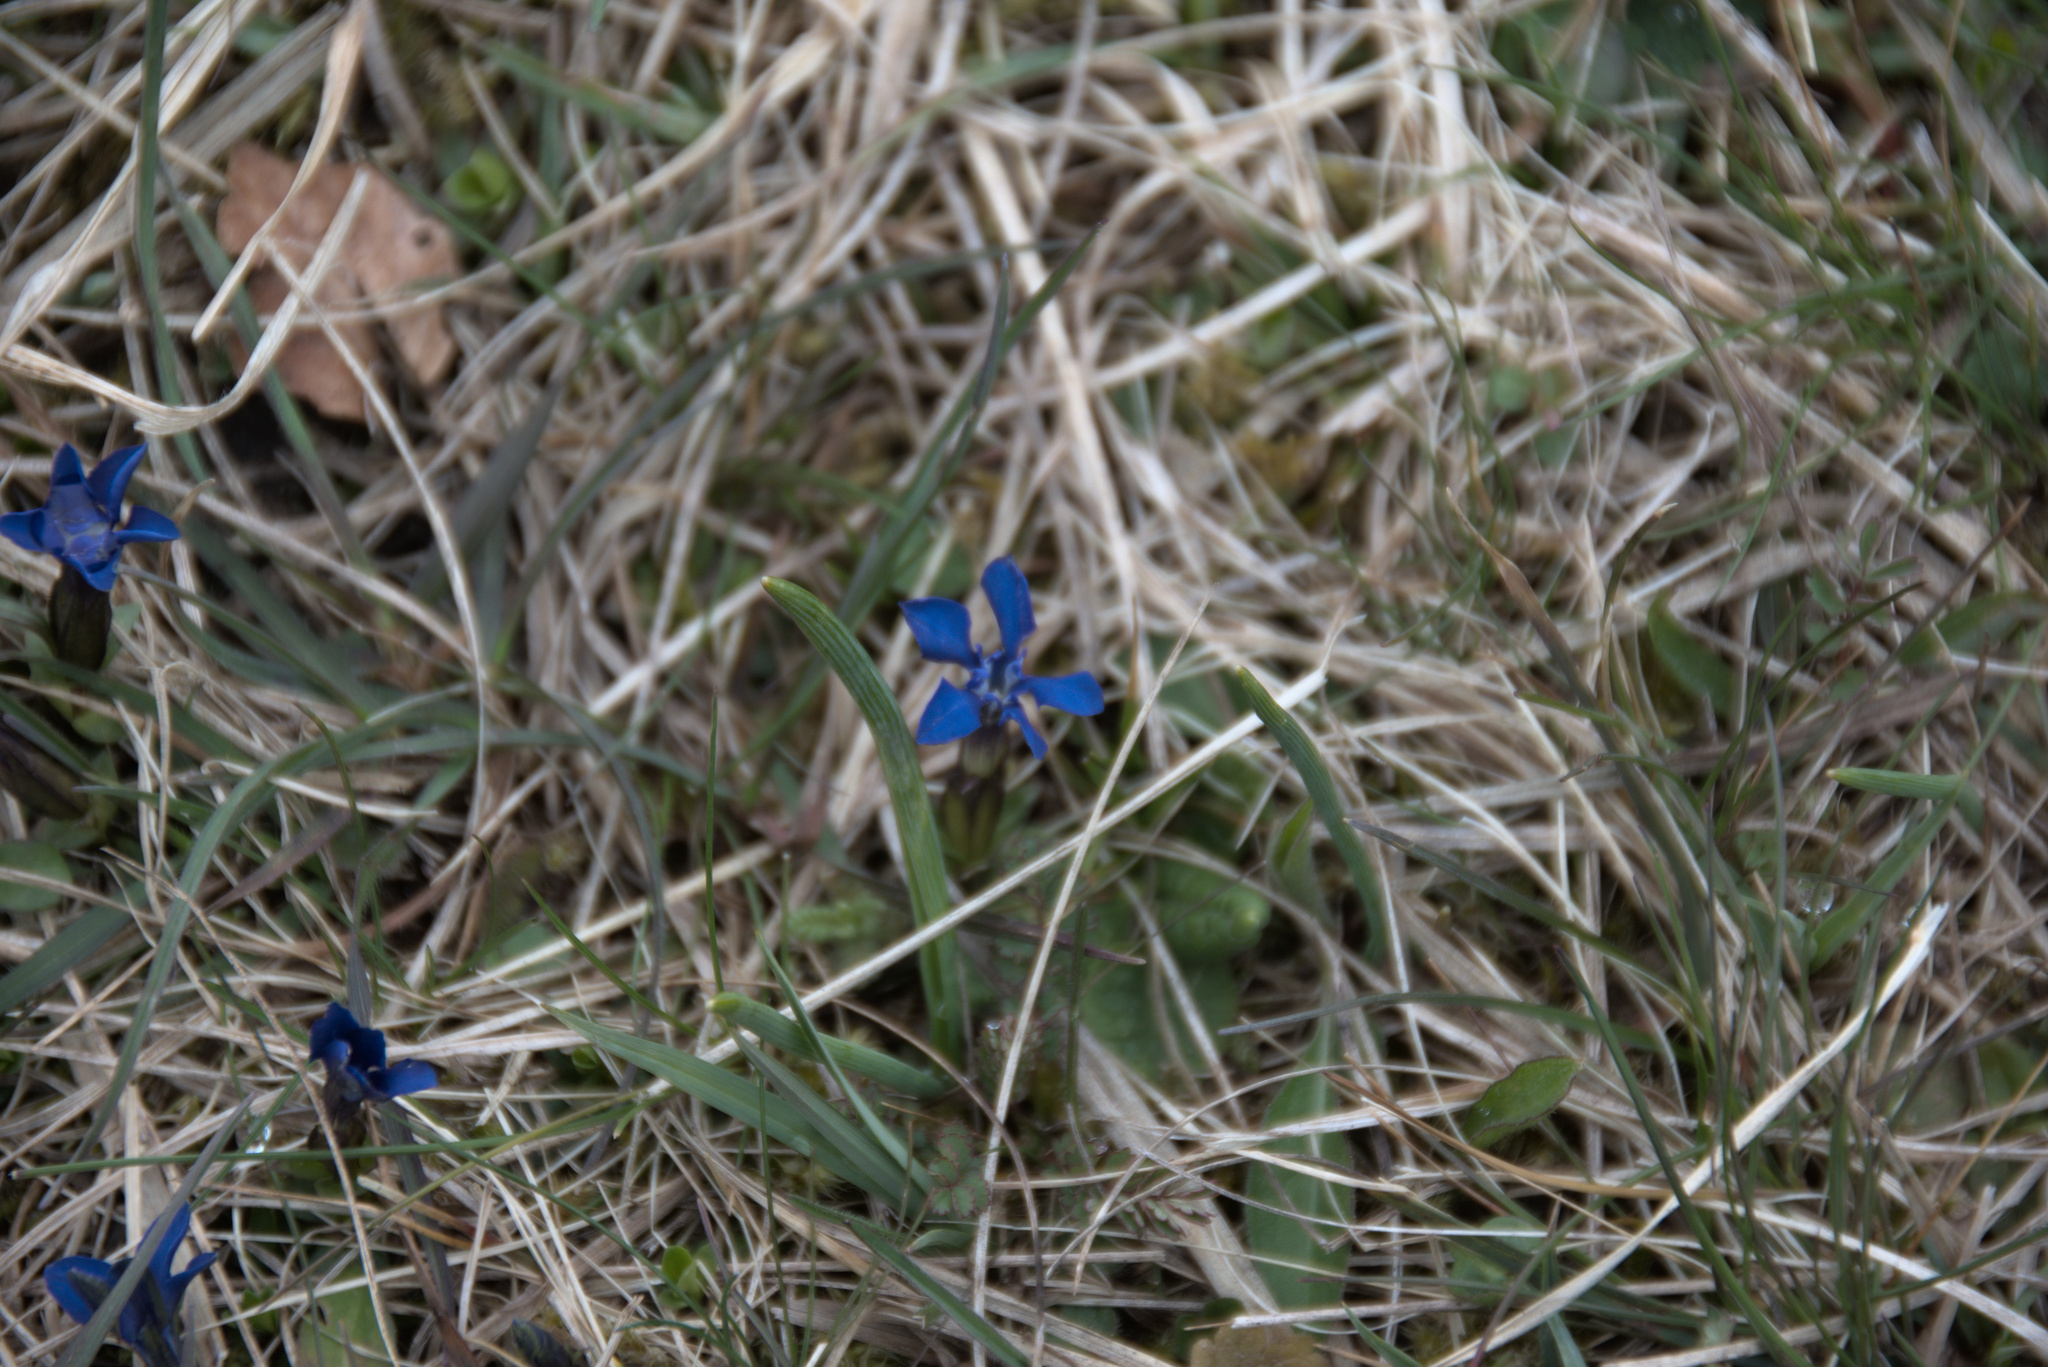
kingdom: Plantae
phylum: Tracheophyta
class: Magnoliopsida
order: Gentianales
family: Gentianaceae
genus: Gentiana
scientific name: Gentiana verna
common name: Spring gentian
